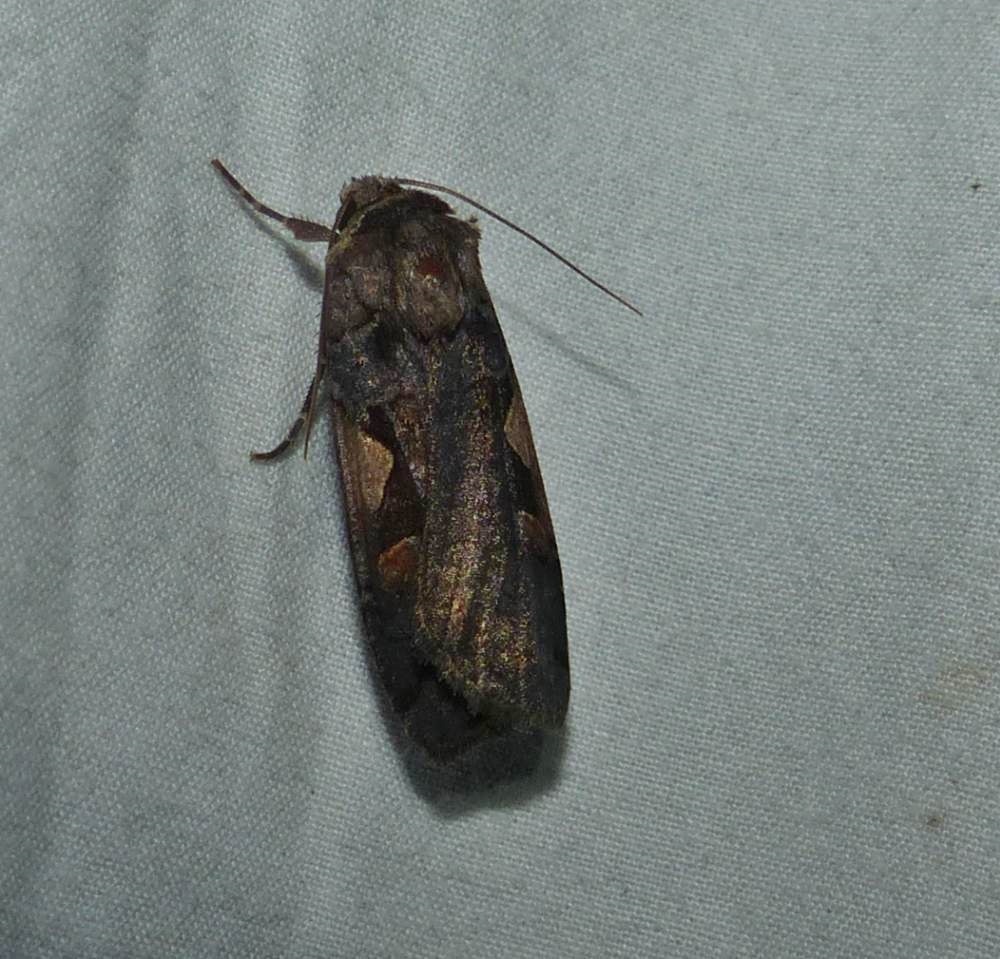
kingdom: Animalia
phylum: Arthropoda
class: Insecta
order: Lepidoptera
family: Noctuidae
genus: Xestia
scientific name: Xestia
